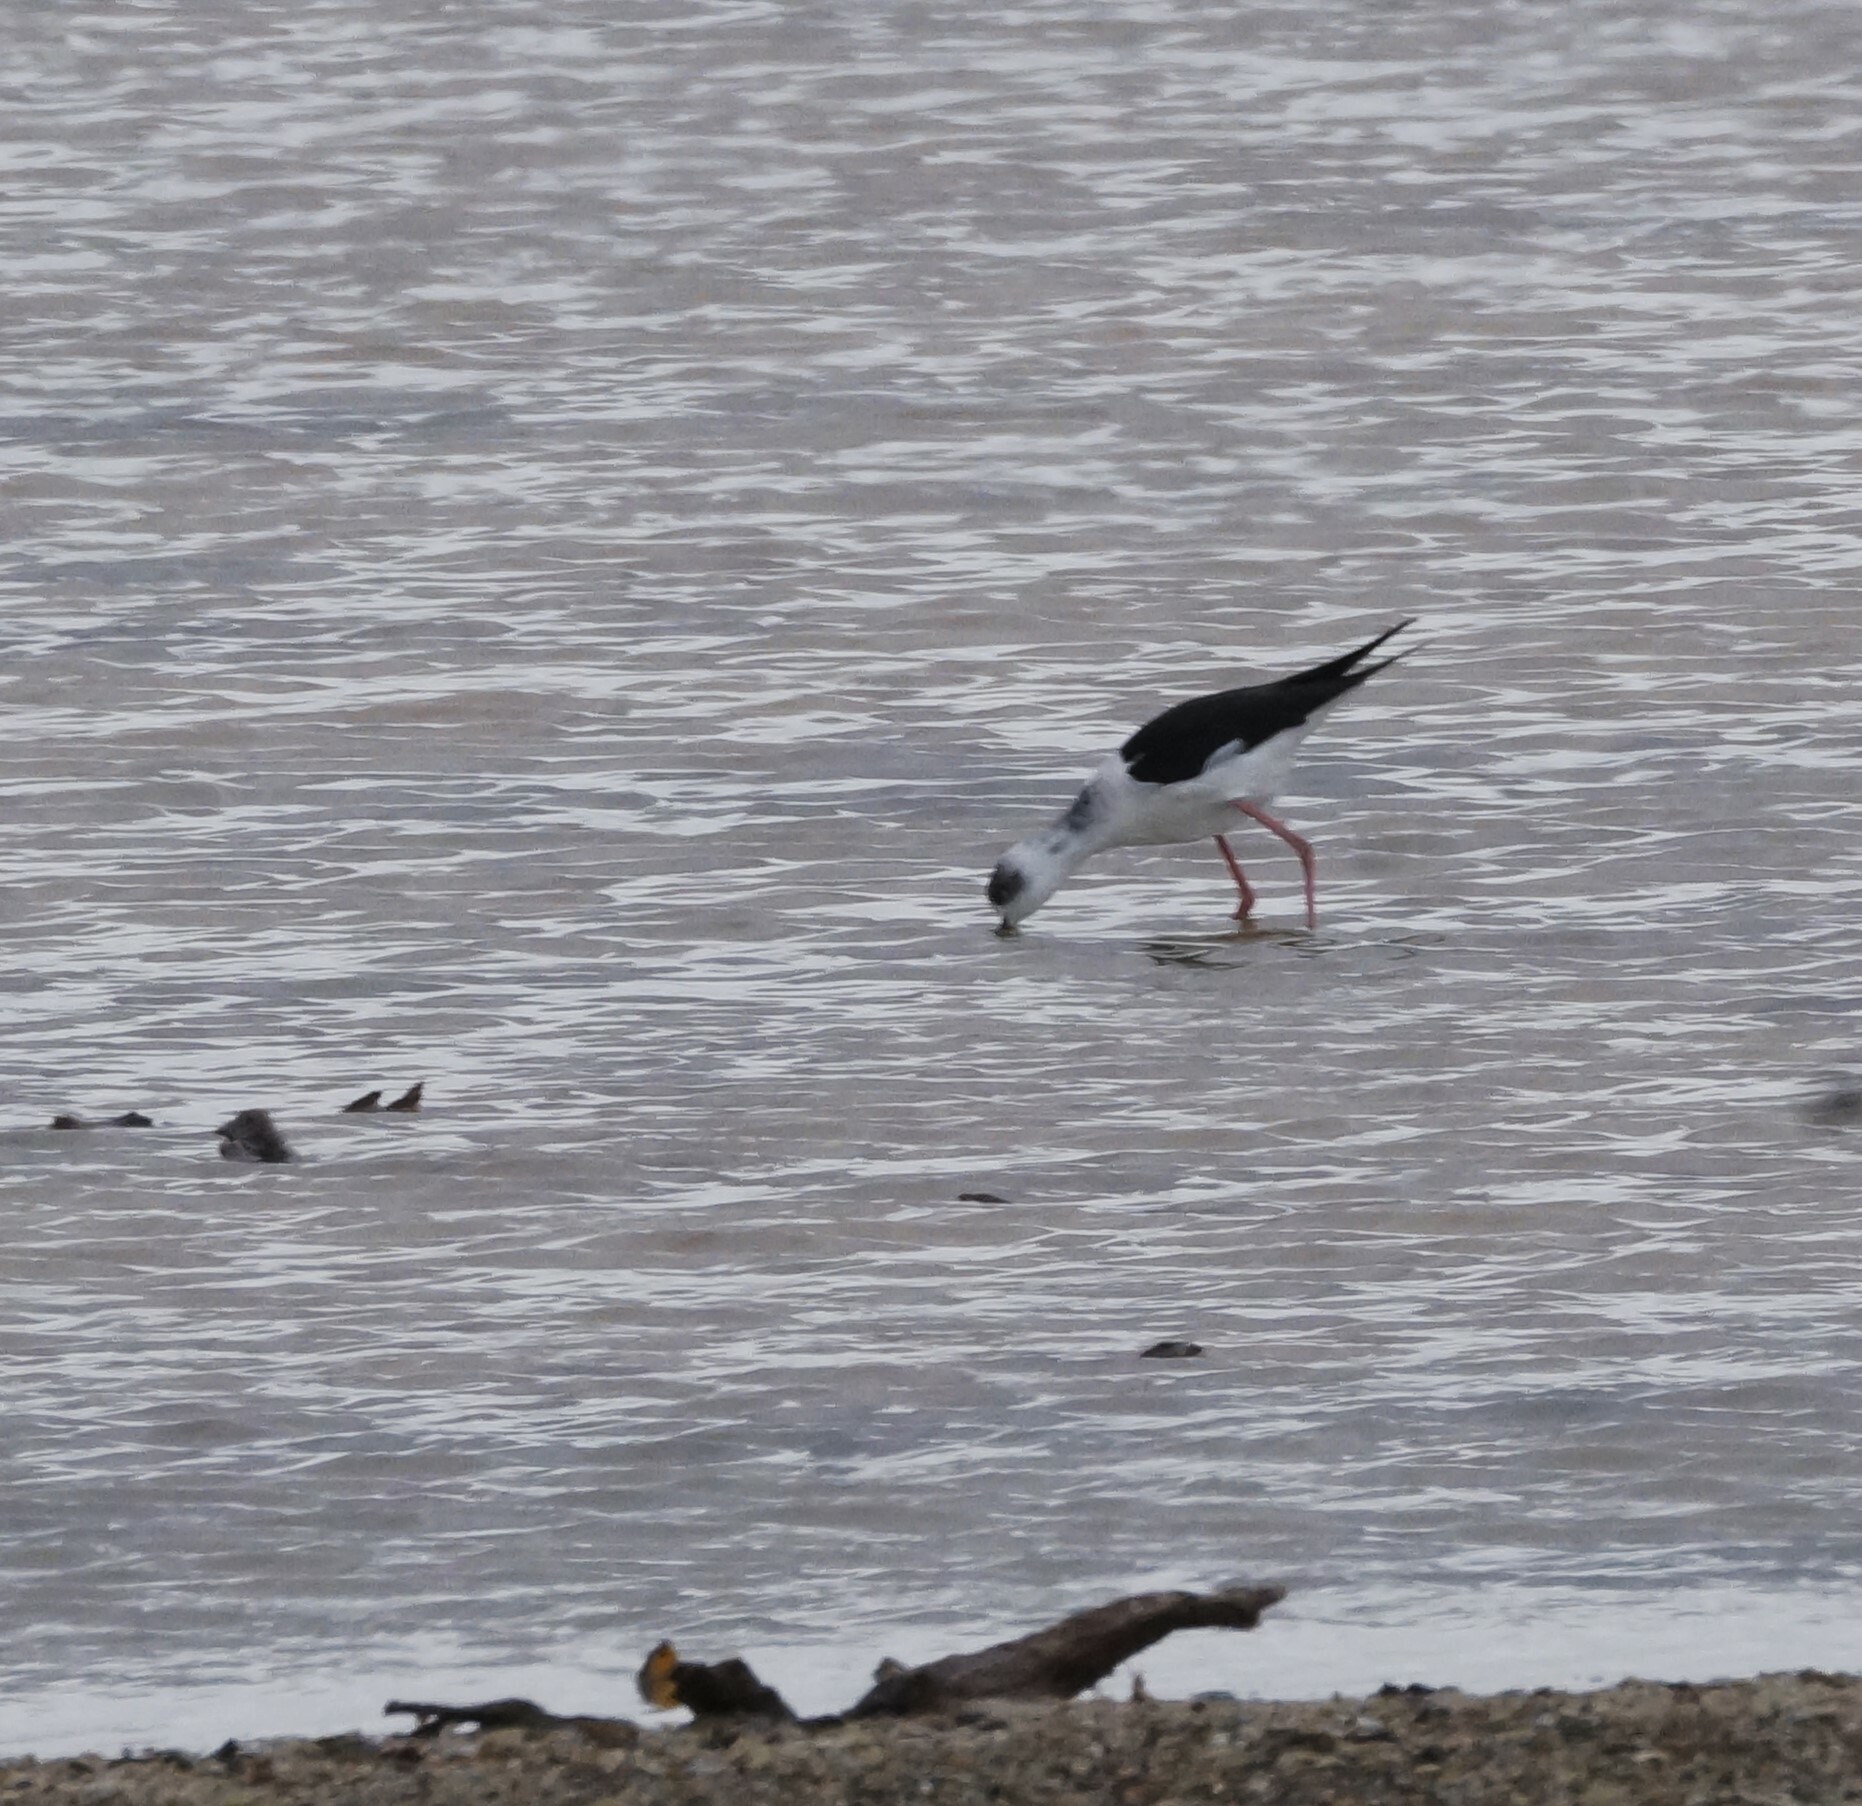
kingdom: Animalia
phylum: Chordata
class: Aves
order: Charadriiformes
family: Recurvirostridae
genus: Himantopus
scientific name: Himantopus leucocephalus
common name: White-headed stilt
